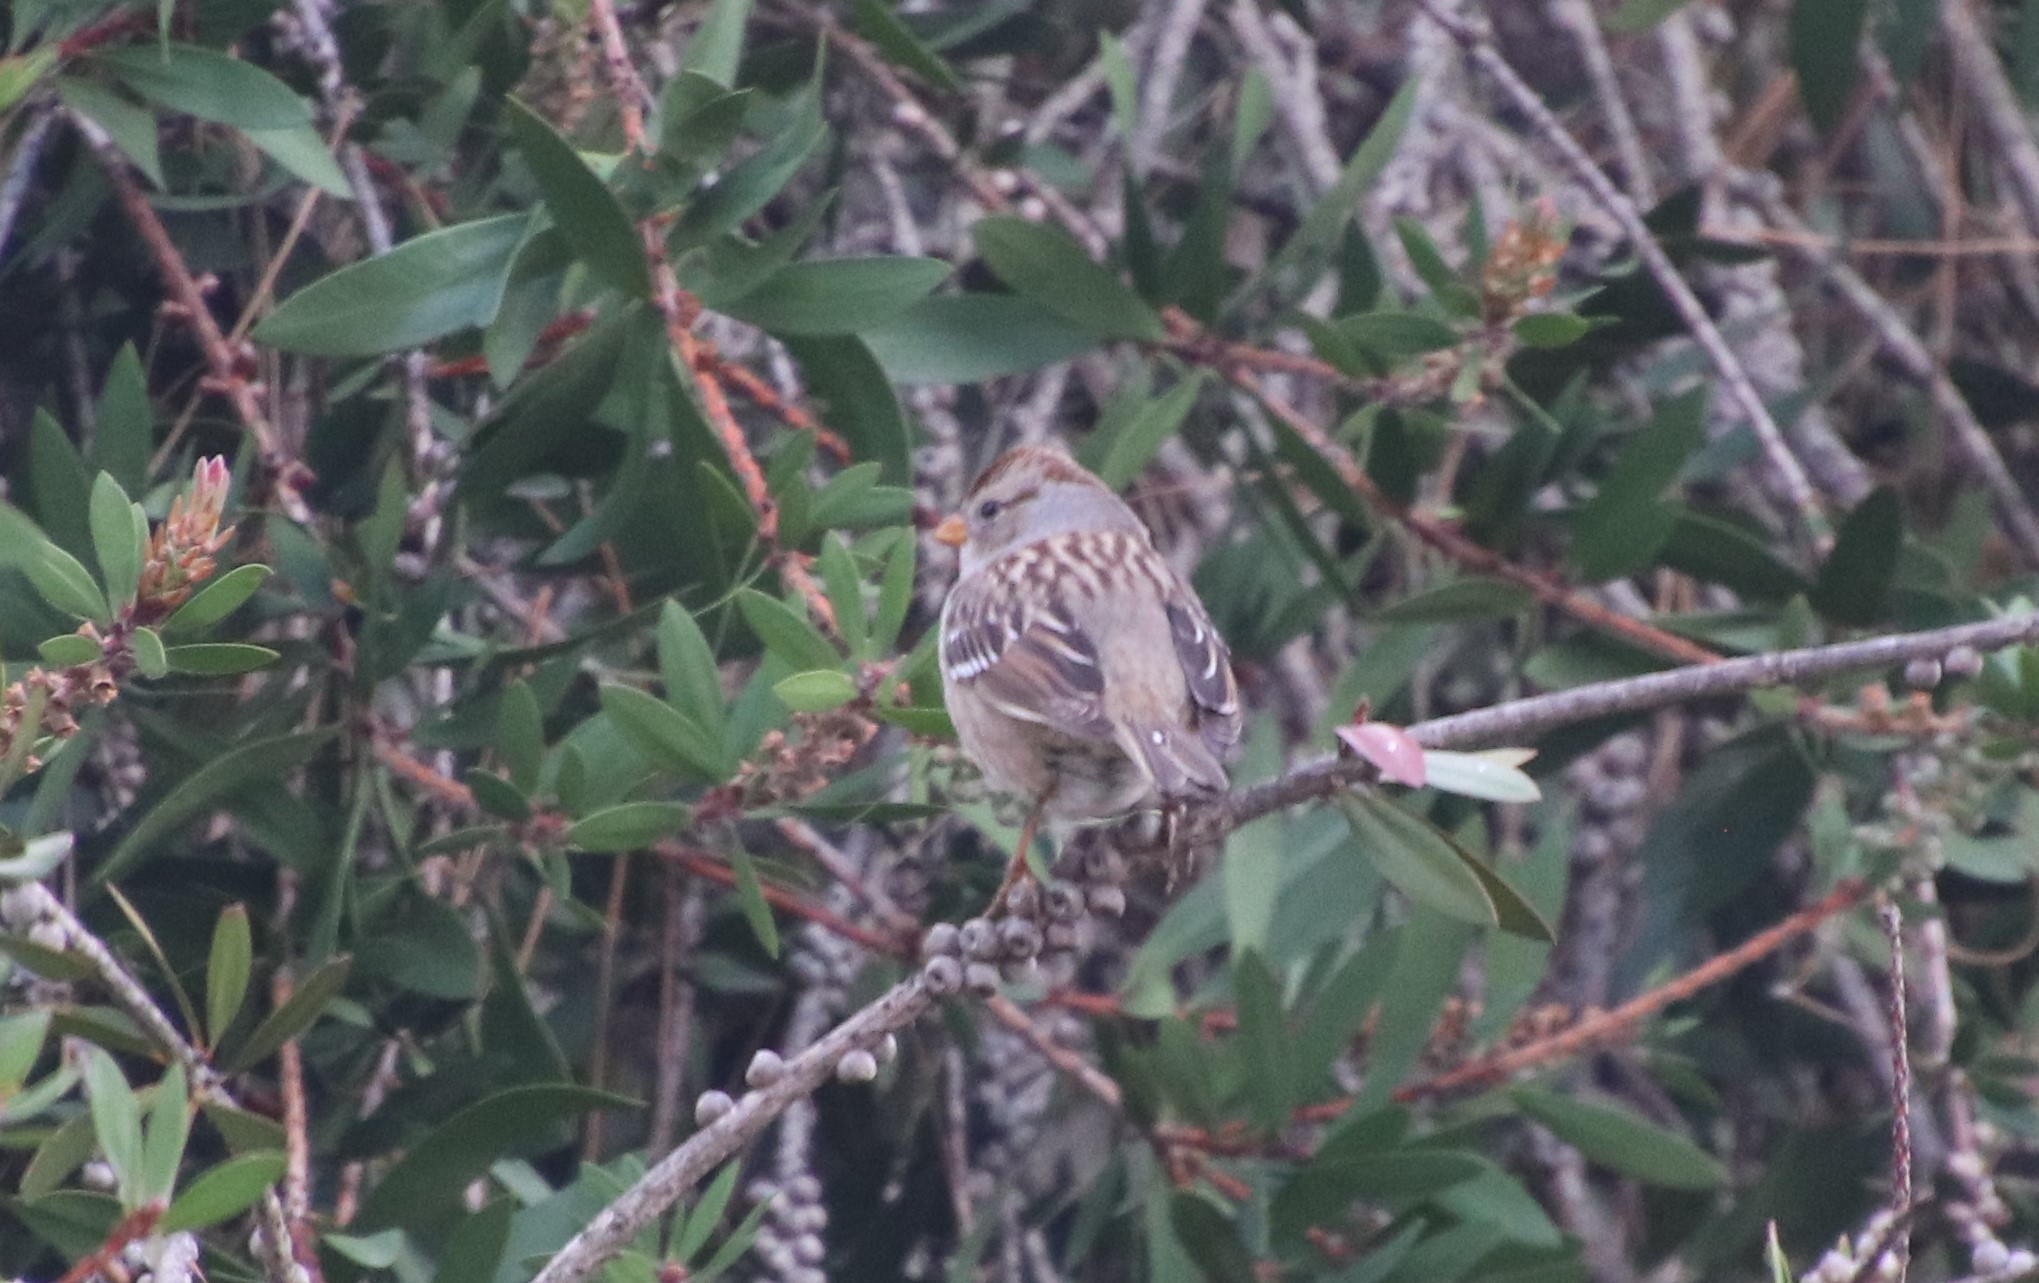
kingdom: Animalia
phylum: Chordata
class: Aves
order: Passeriformes
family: Passerellidae
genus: Zonotrichia
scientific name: Zonotrichia leucophrys
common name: White-crowned sparrow
